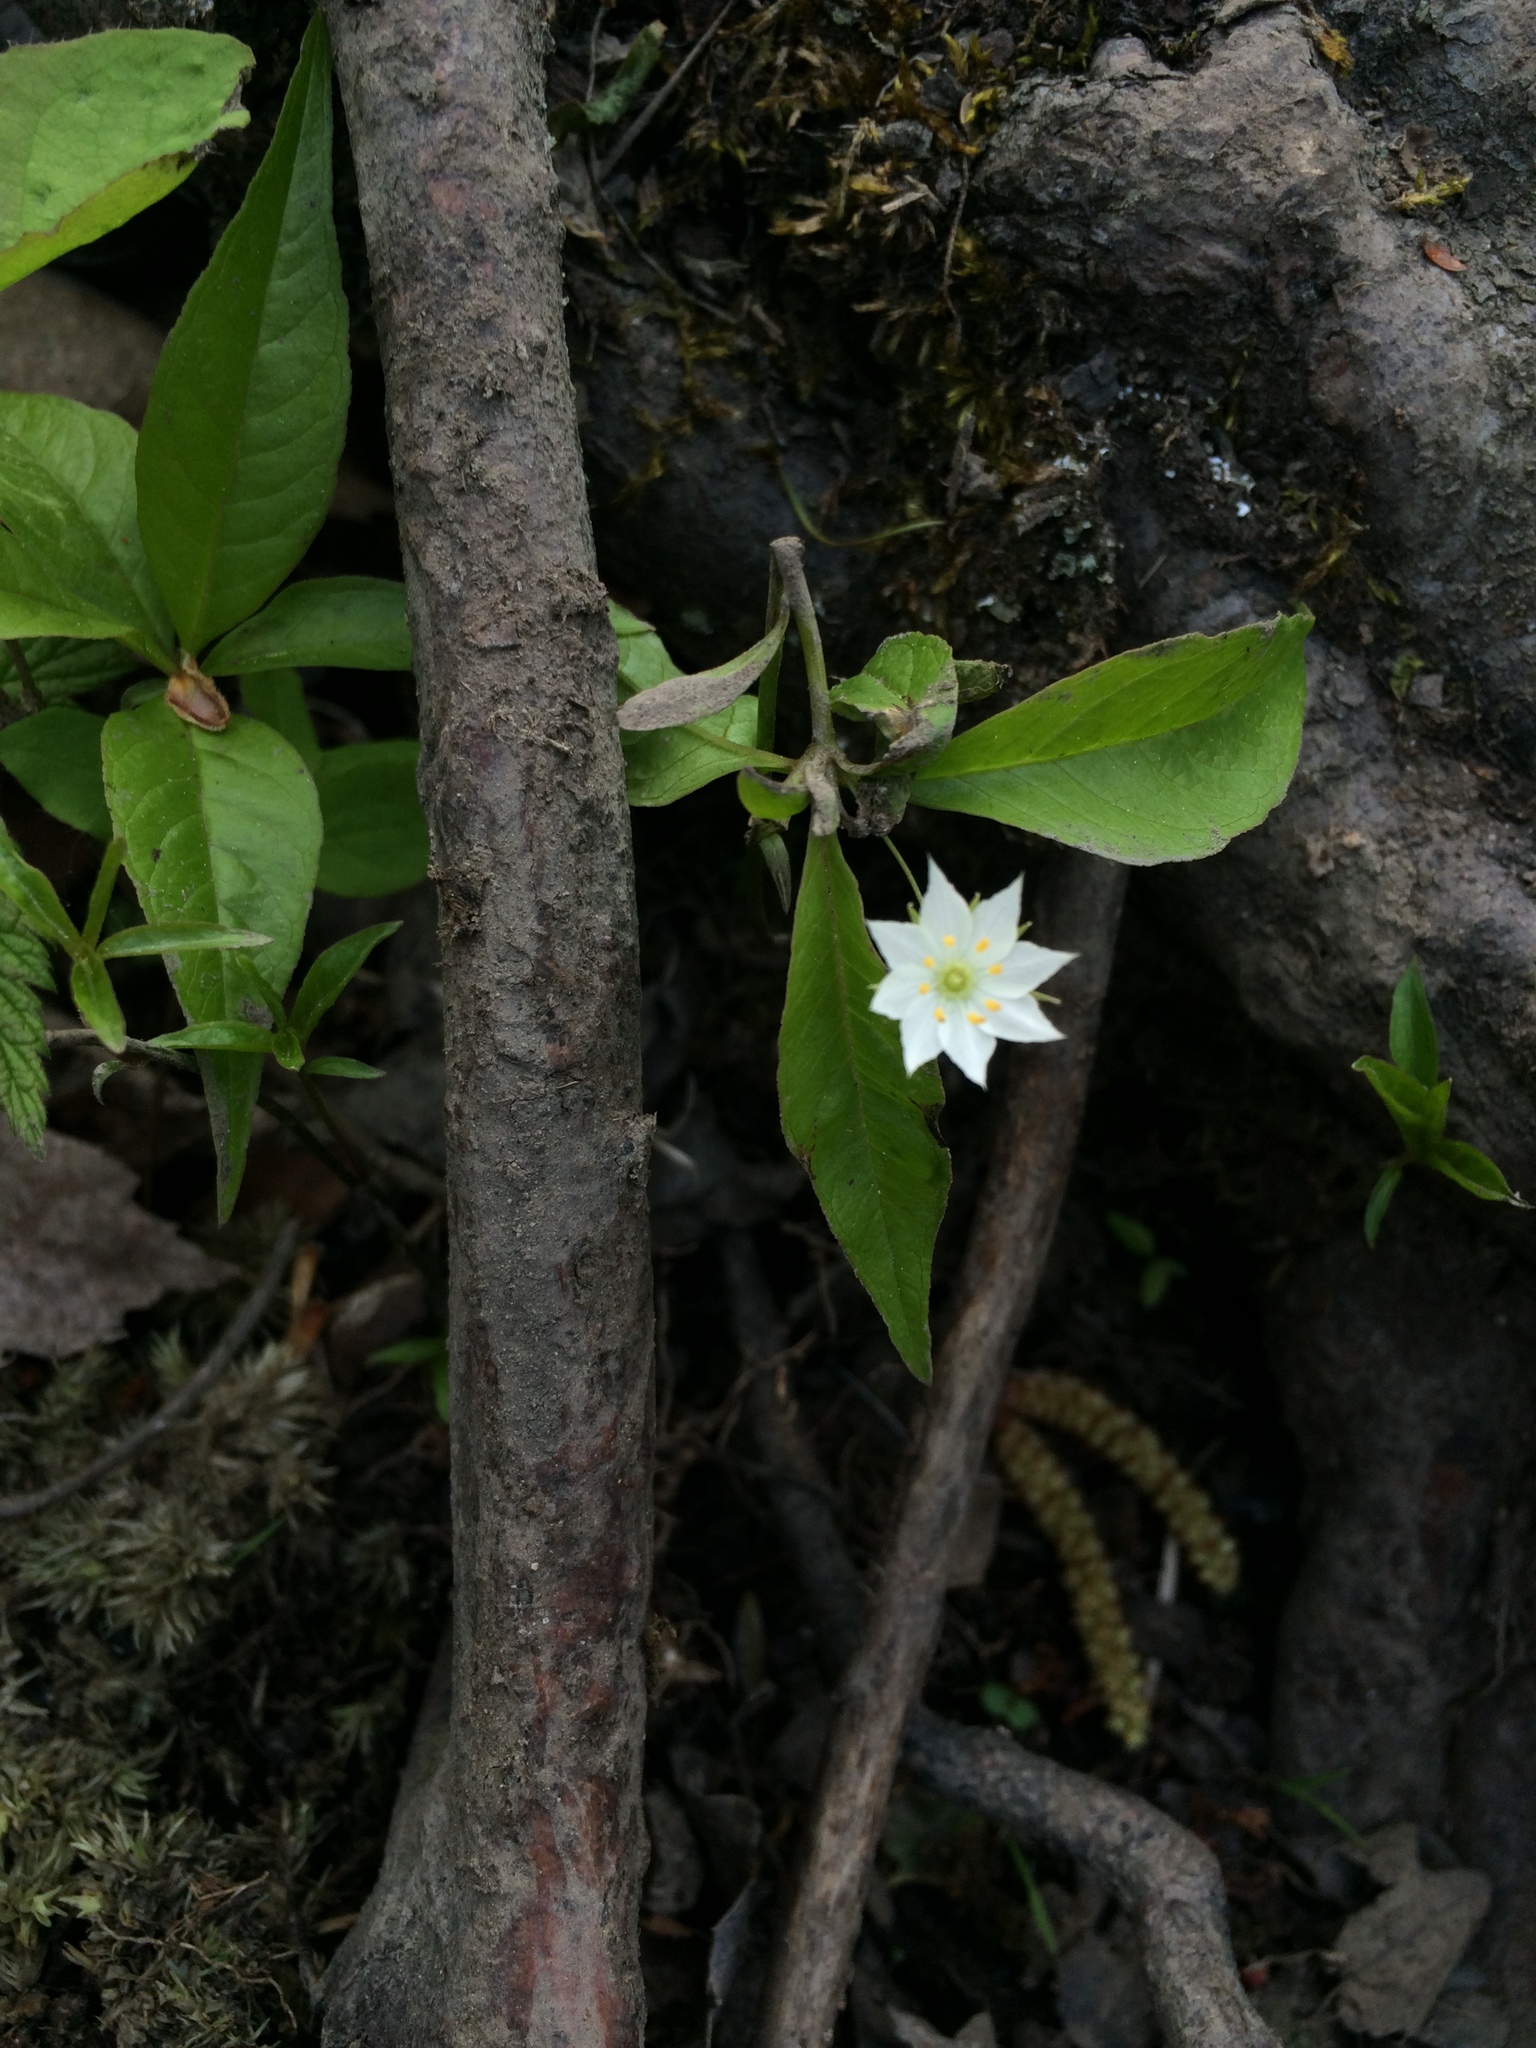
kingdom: Plantae
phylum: Tracheophyta
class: Magnoliopsida
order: Ericales
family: Primulaceae
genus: Lysimachia
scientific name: Lysimachia borealis
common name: American starflower
